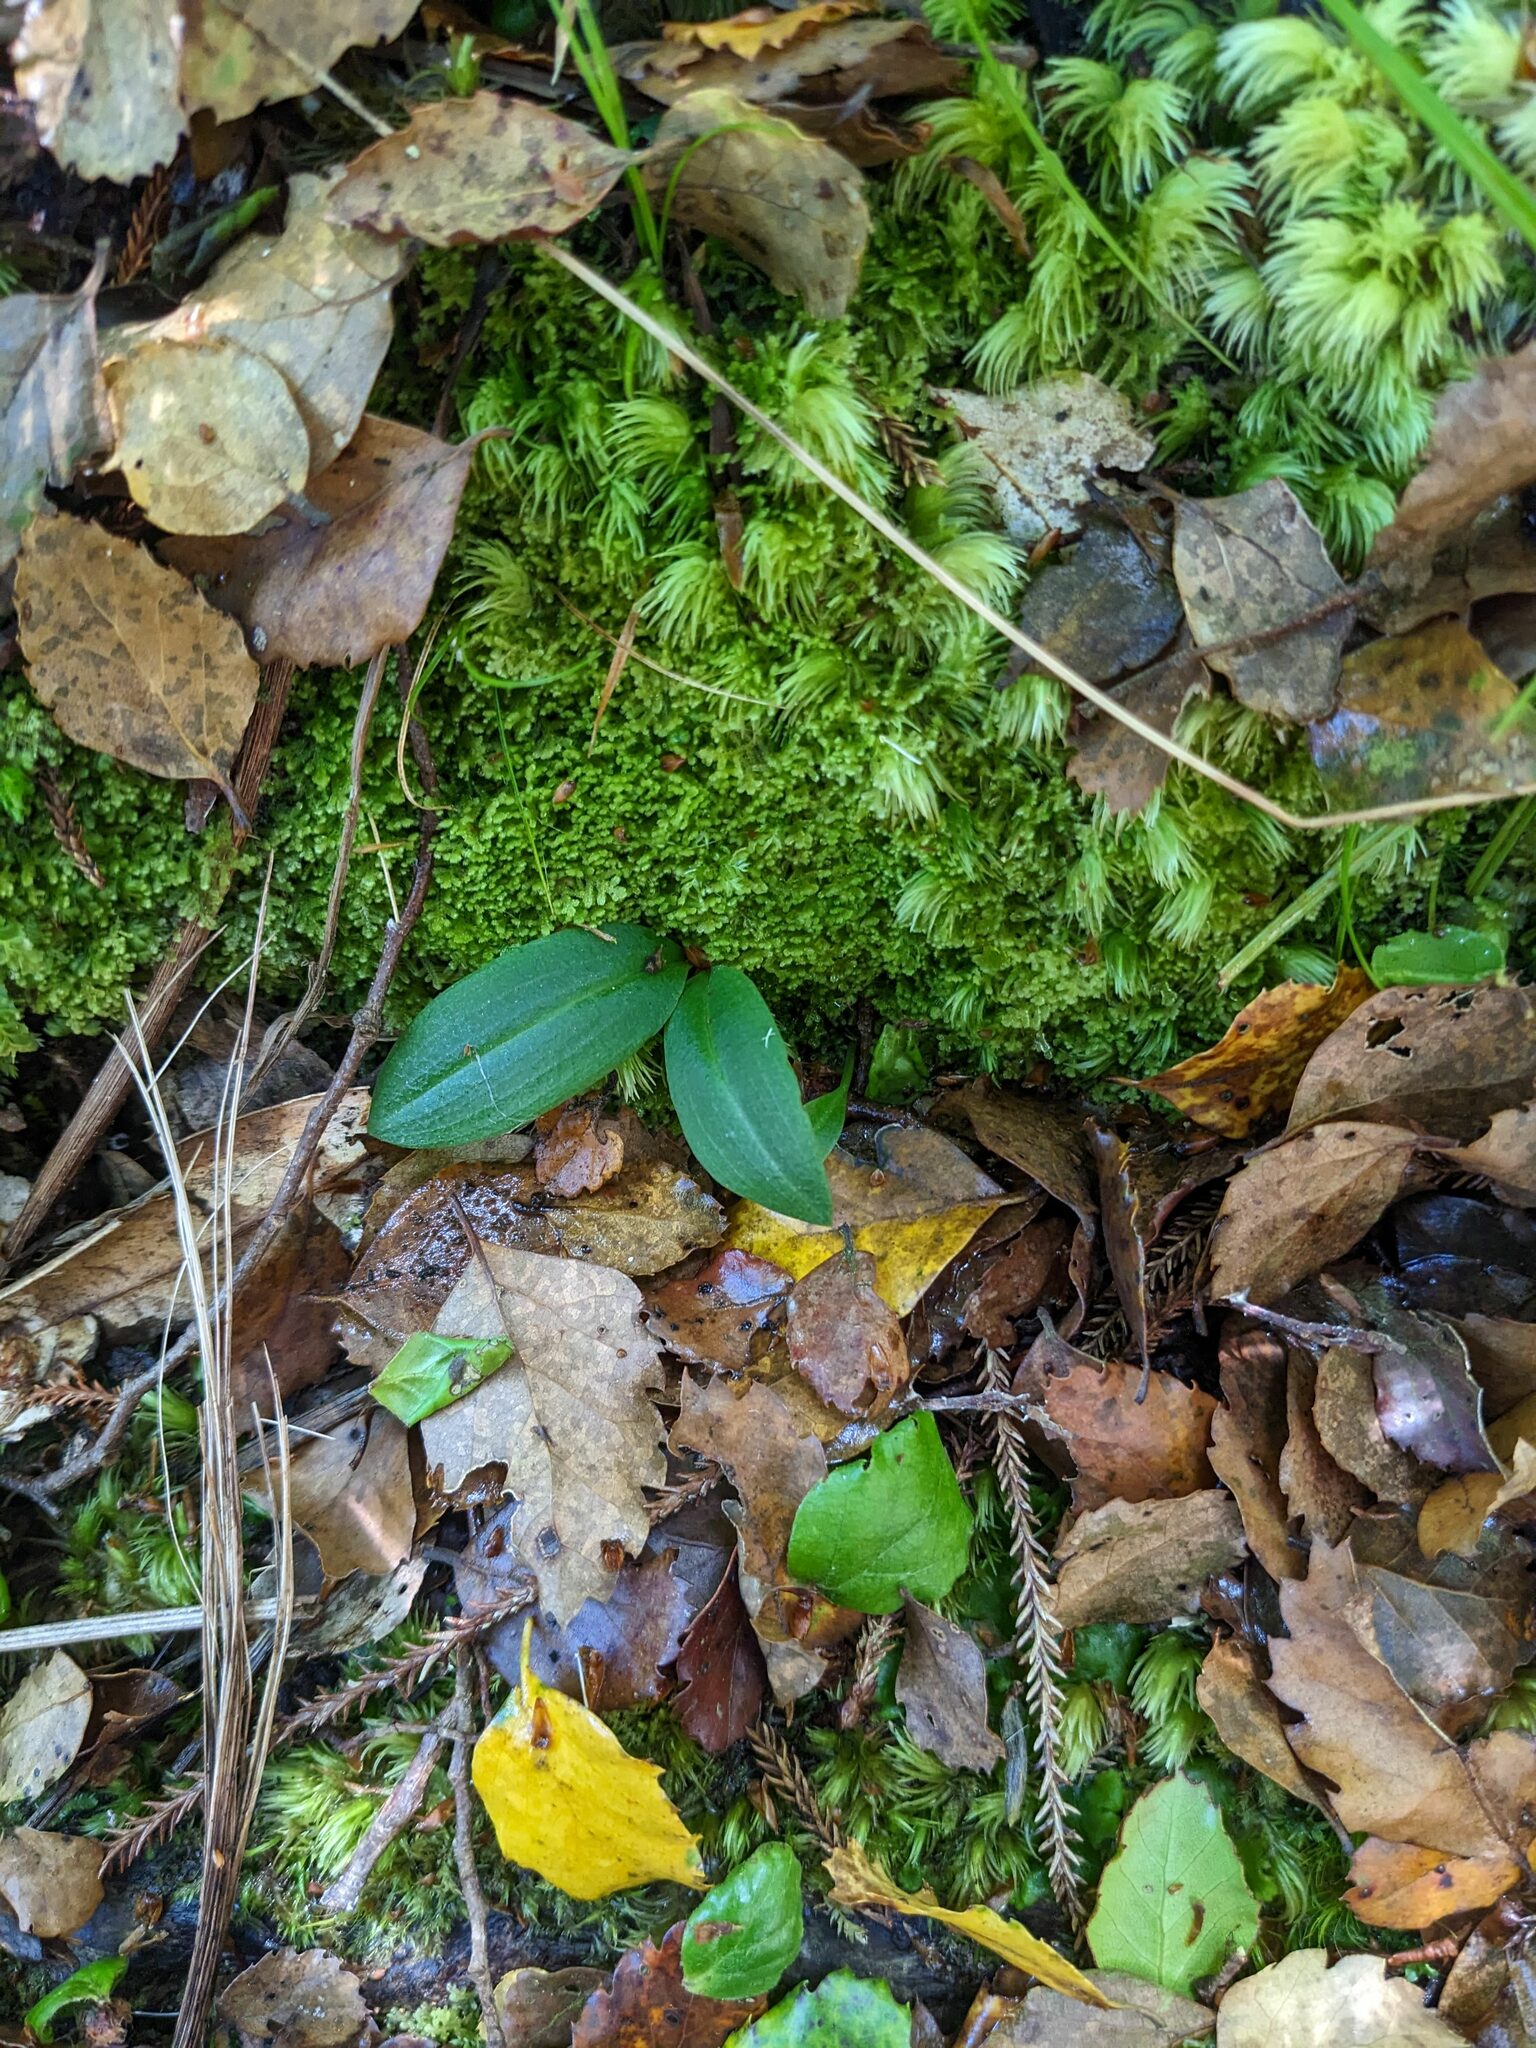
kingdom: Plantae
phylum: Tracheophyta
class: Liliopsida
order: Asparagales
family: Orchidaceae
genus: Chiloglottis
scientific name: Chiloglottis cornuta
